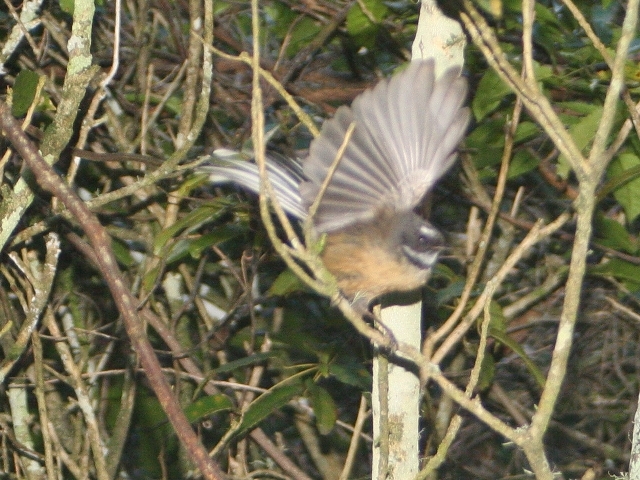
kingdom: Animalia
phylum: Chordata
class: Aves
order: Passeriformes
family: Rhipiduridae
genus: Rhipidura
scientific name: Rhipidura fuliginosa
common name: New zealand fantail
